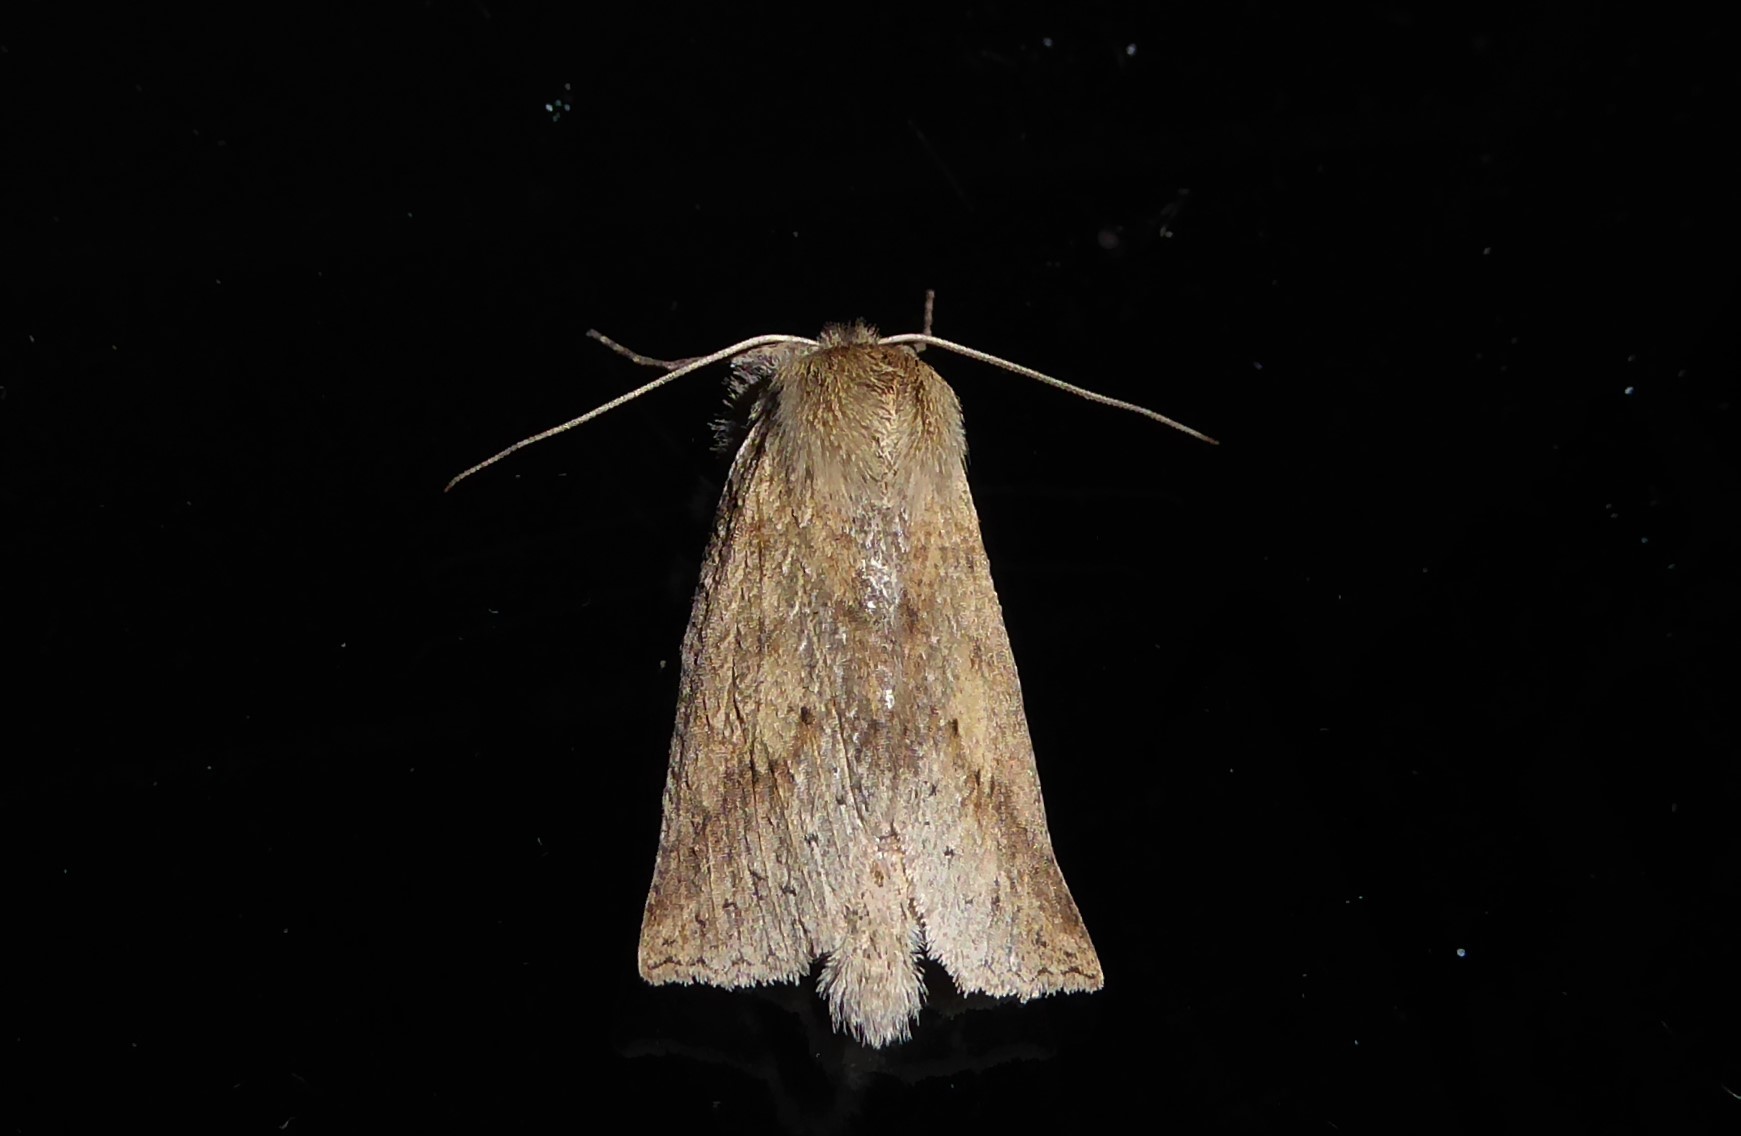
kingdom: Animalia
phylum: Arthropoda
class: Insecta
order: Lepidoptera
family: Geometridae
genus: Declana
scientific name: Declana leptomera
